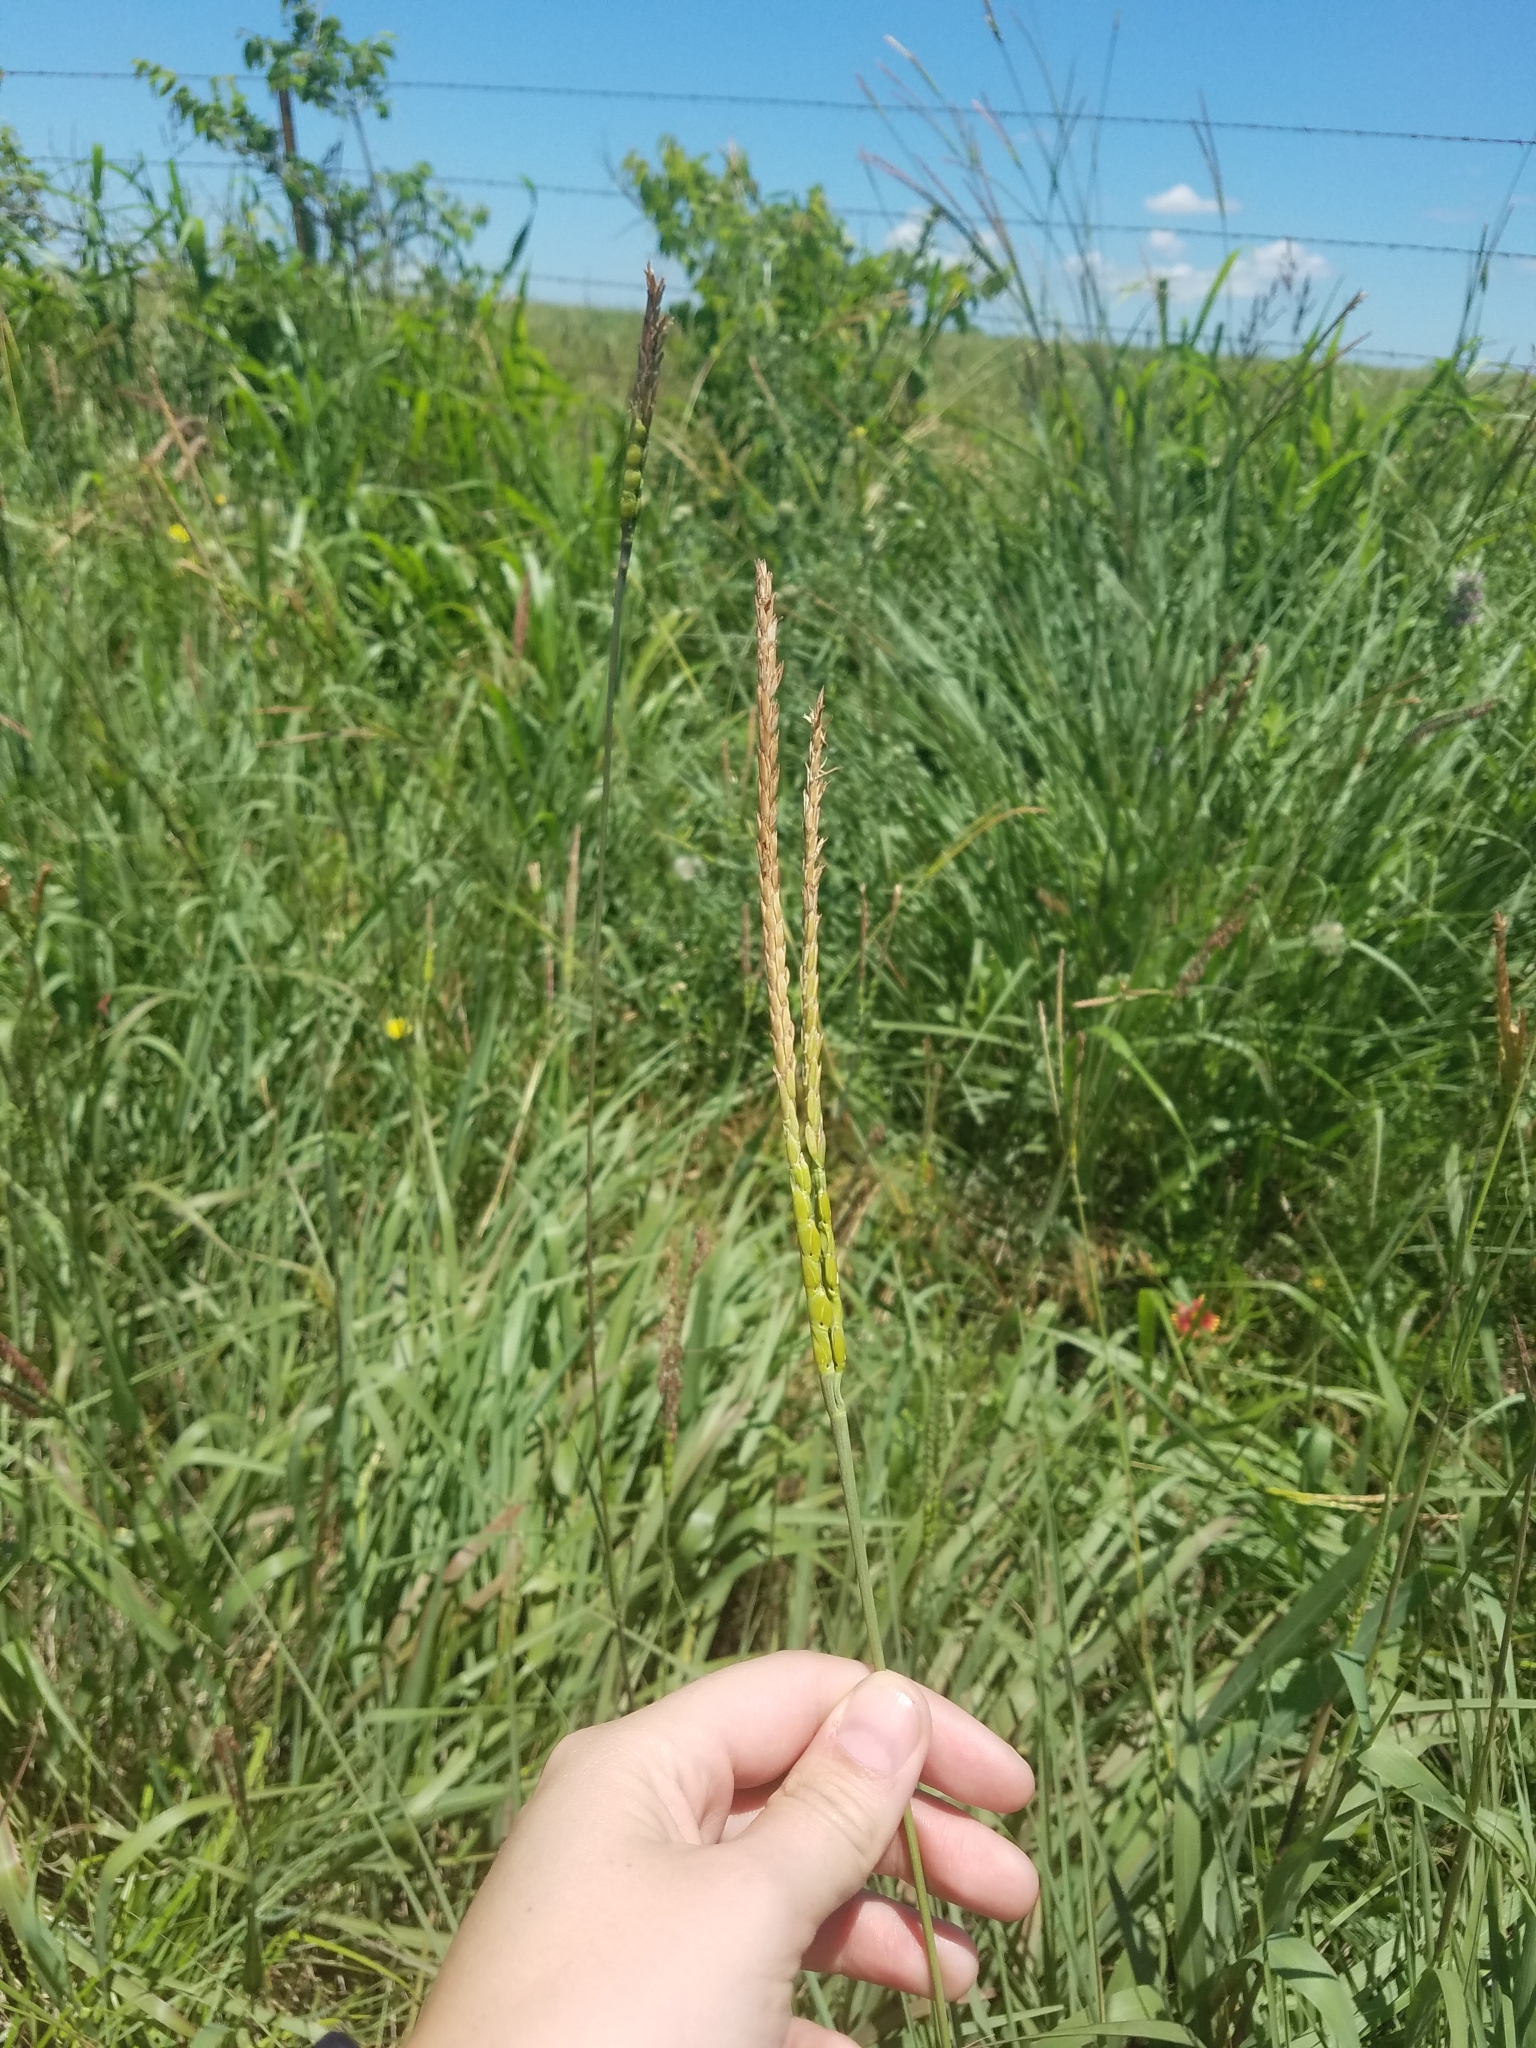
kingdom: Plantae
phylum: Tracheophyta
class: Liliopsida
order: Poales
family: Poaceae
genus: Tripsacum
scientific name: Tripsacum dactyloides
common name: Buffalo-grass
